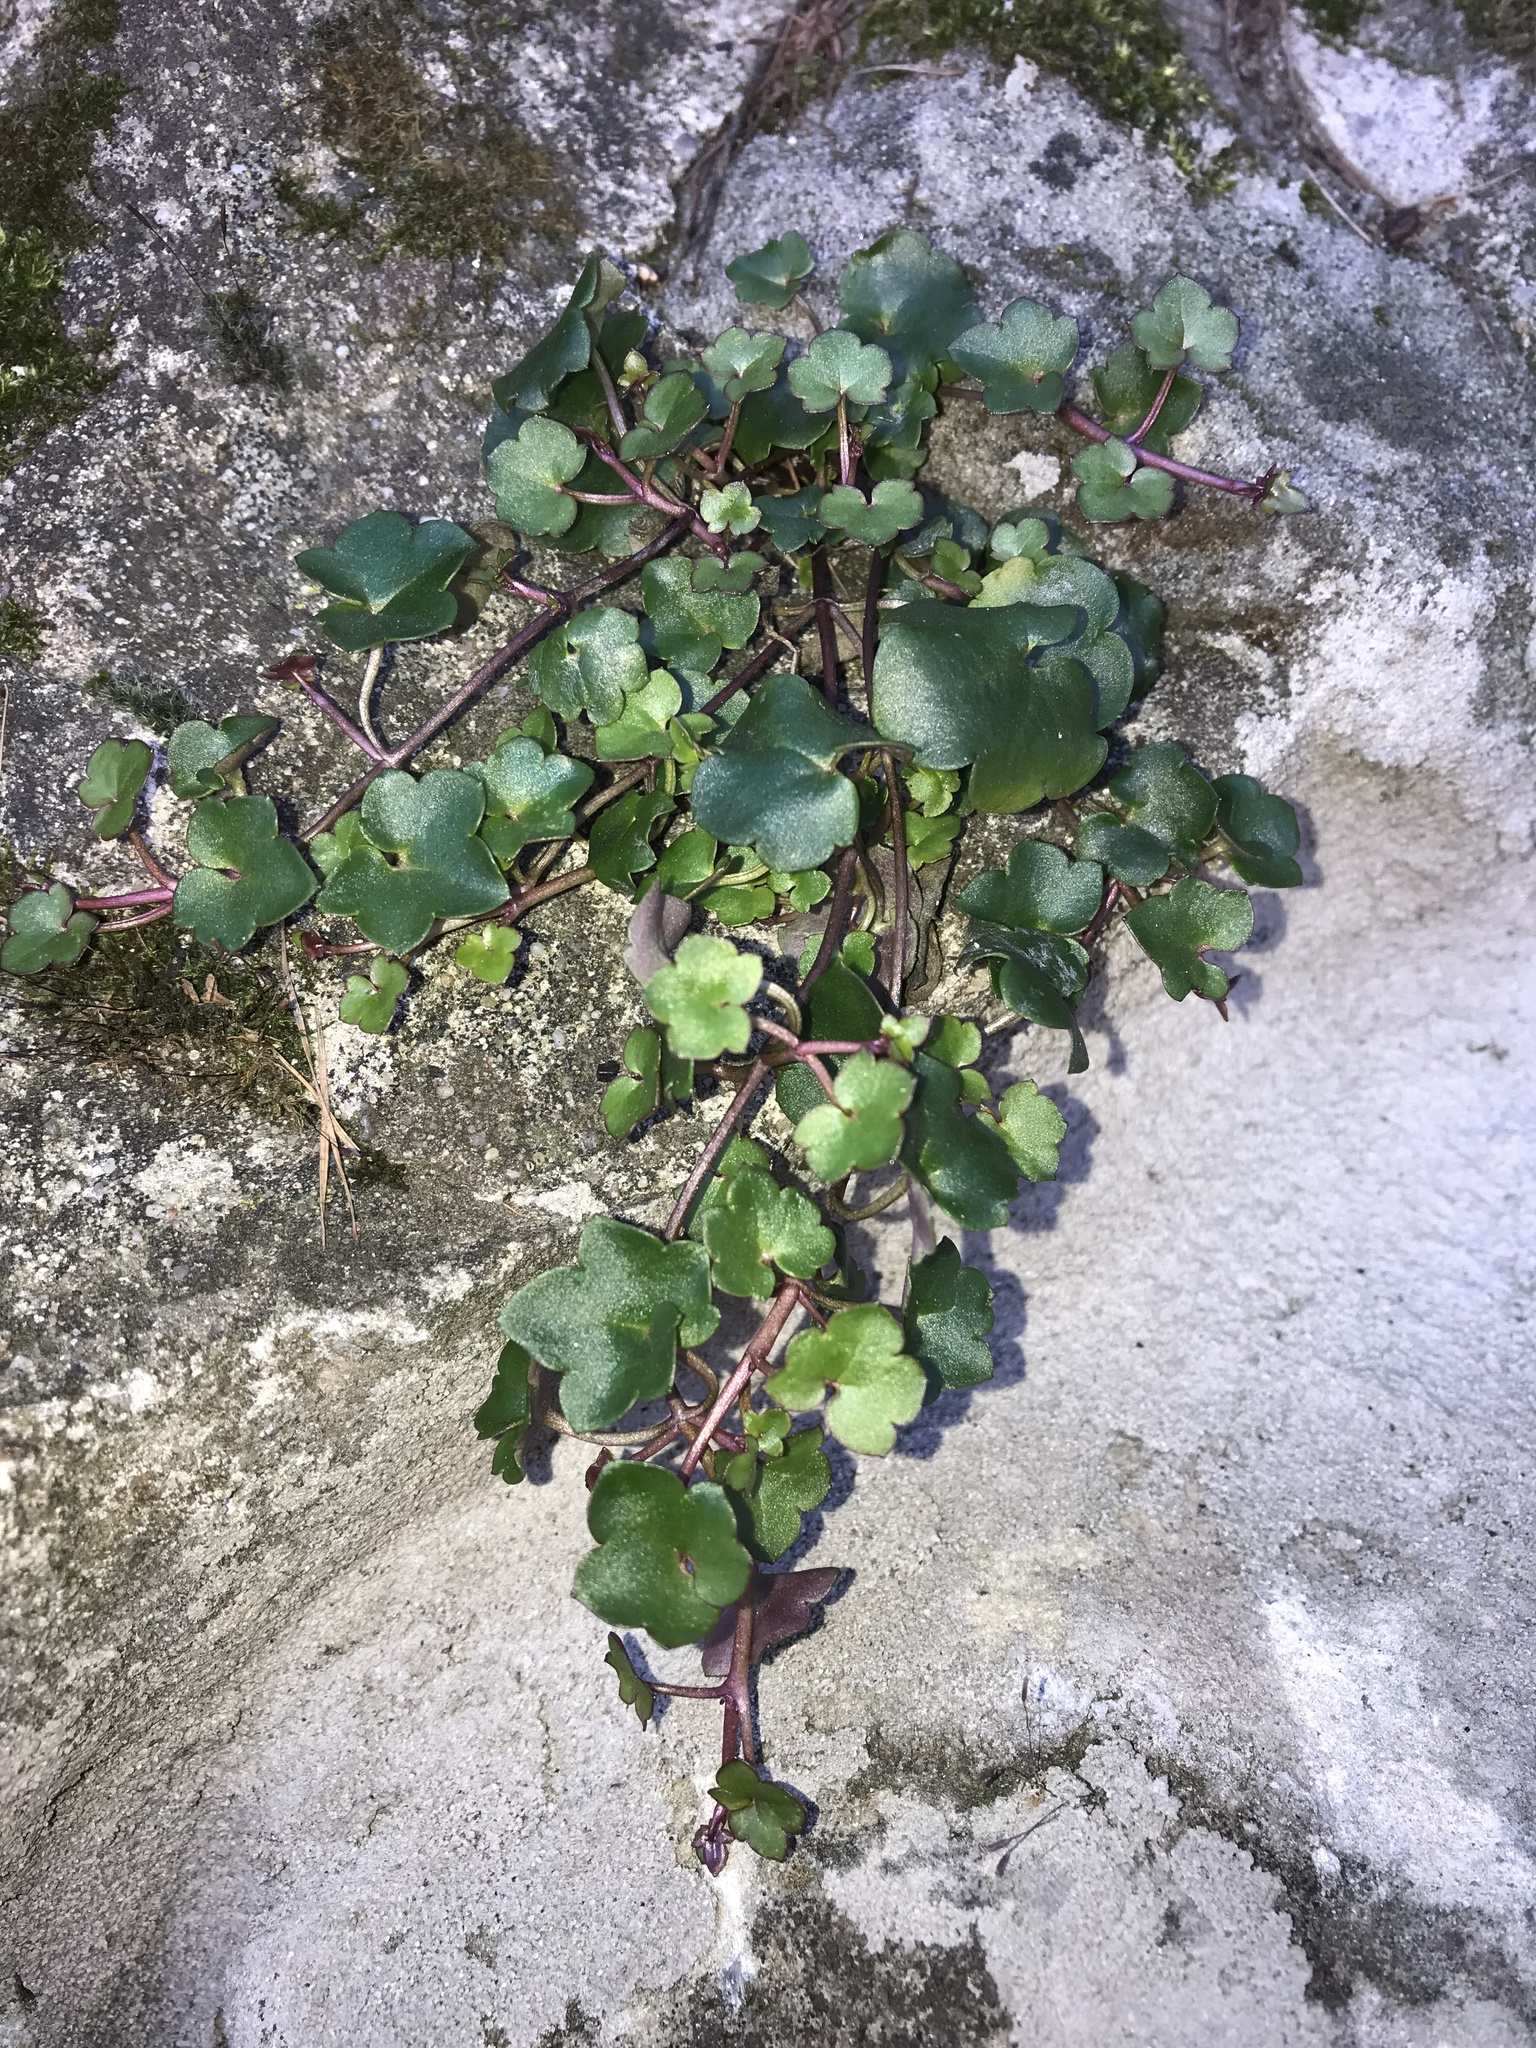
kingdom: Plantae
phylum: Tracheophyta
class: Magnoliopsida
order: Lamiales
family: Plantaginaceae
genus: Cymbalaria
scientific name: Cymbalaria muralis
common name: Ivy-leaved toadflax
